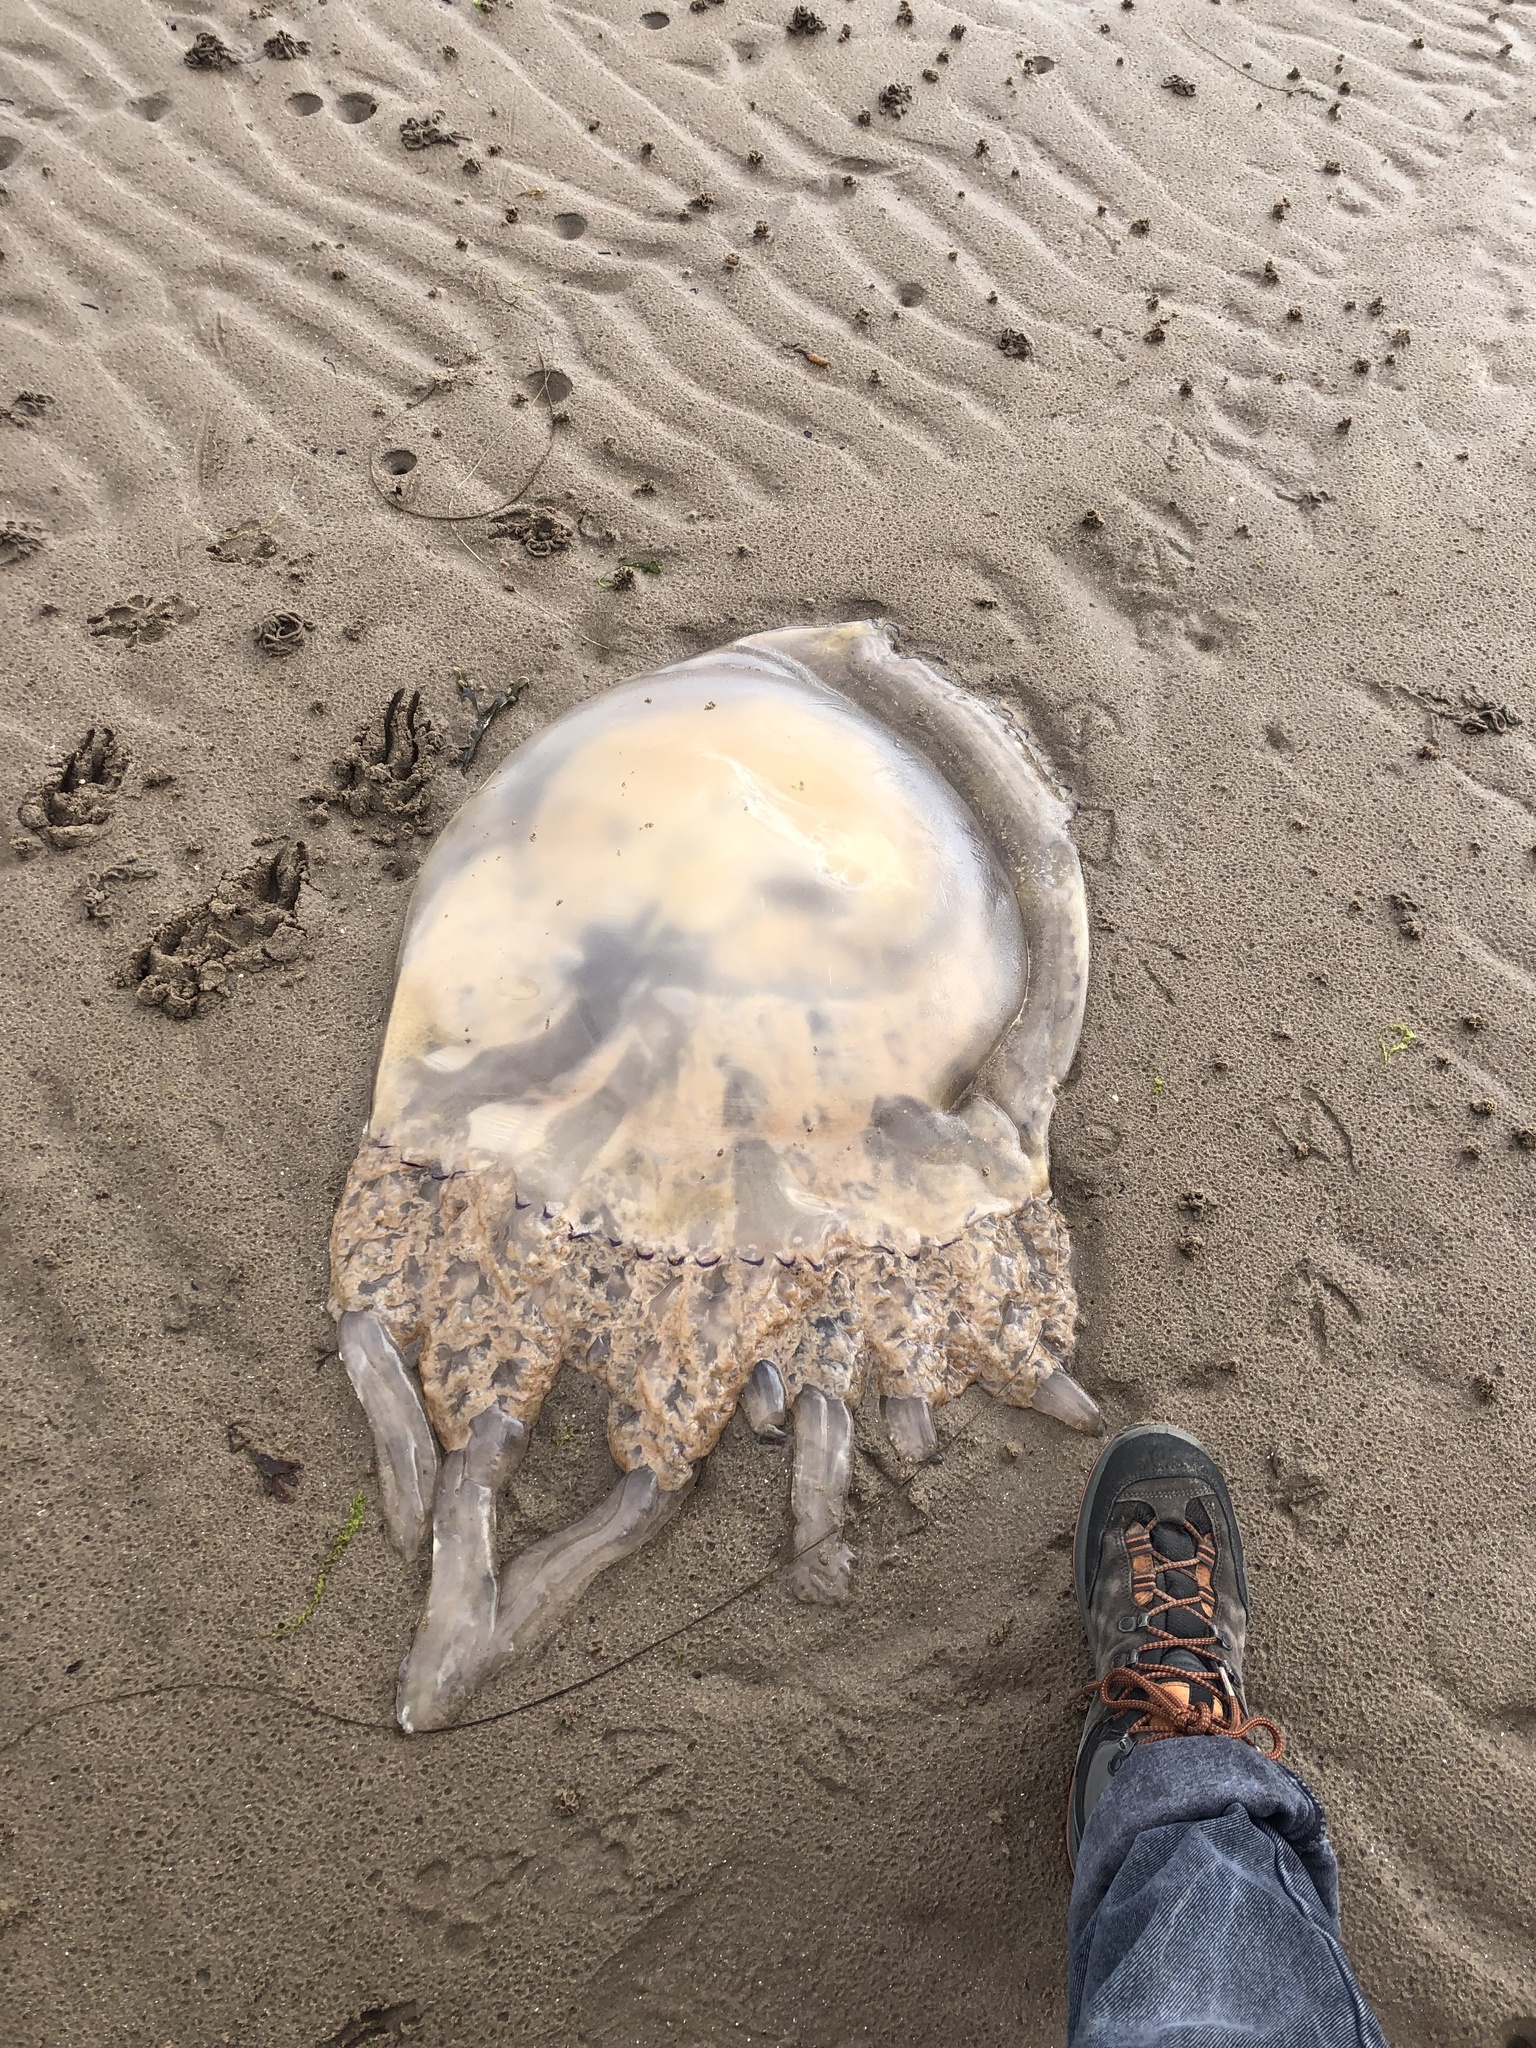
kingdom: Animalia
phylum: Cnidaria
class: Scyphozoa
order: Rhizostomeae
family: Rhizostomatidae
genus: Rhizostoma
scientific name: Rhizostoma octopus
